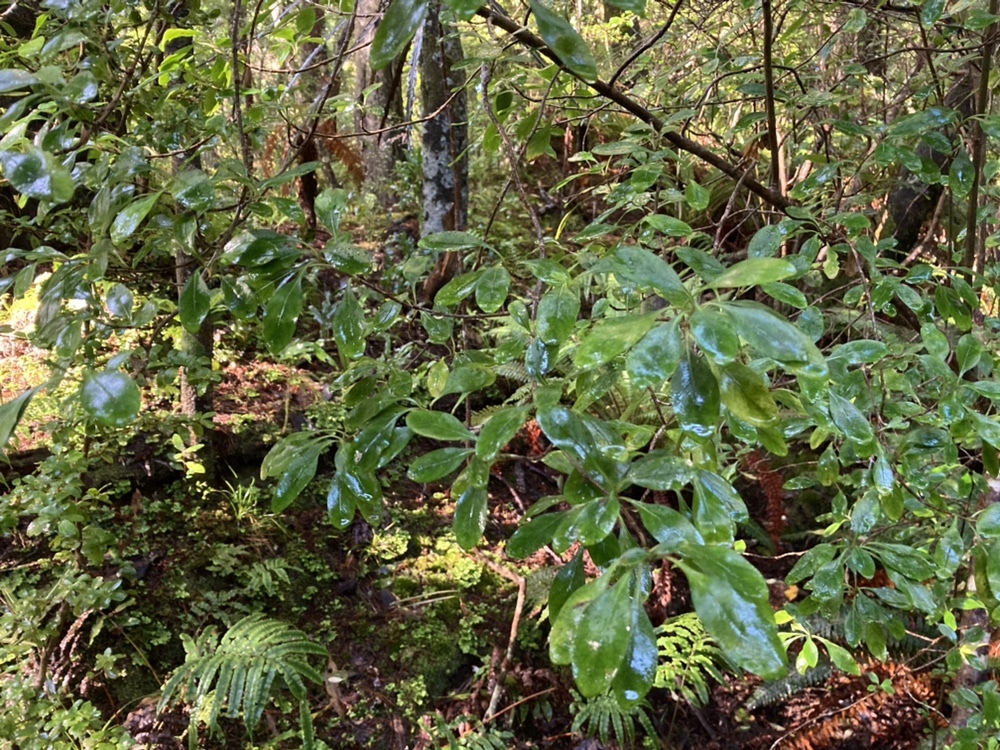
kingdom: Plantae
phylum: Tracheophyta
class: Magnoliopsida
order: Gentianales
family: Rubiaceae
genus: Coprosma
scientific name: Coprosma foetidissima
